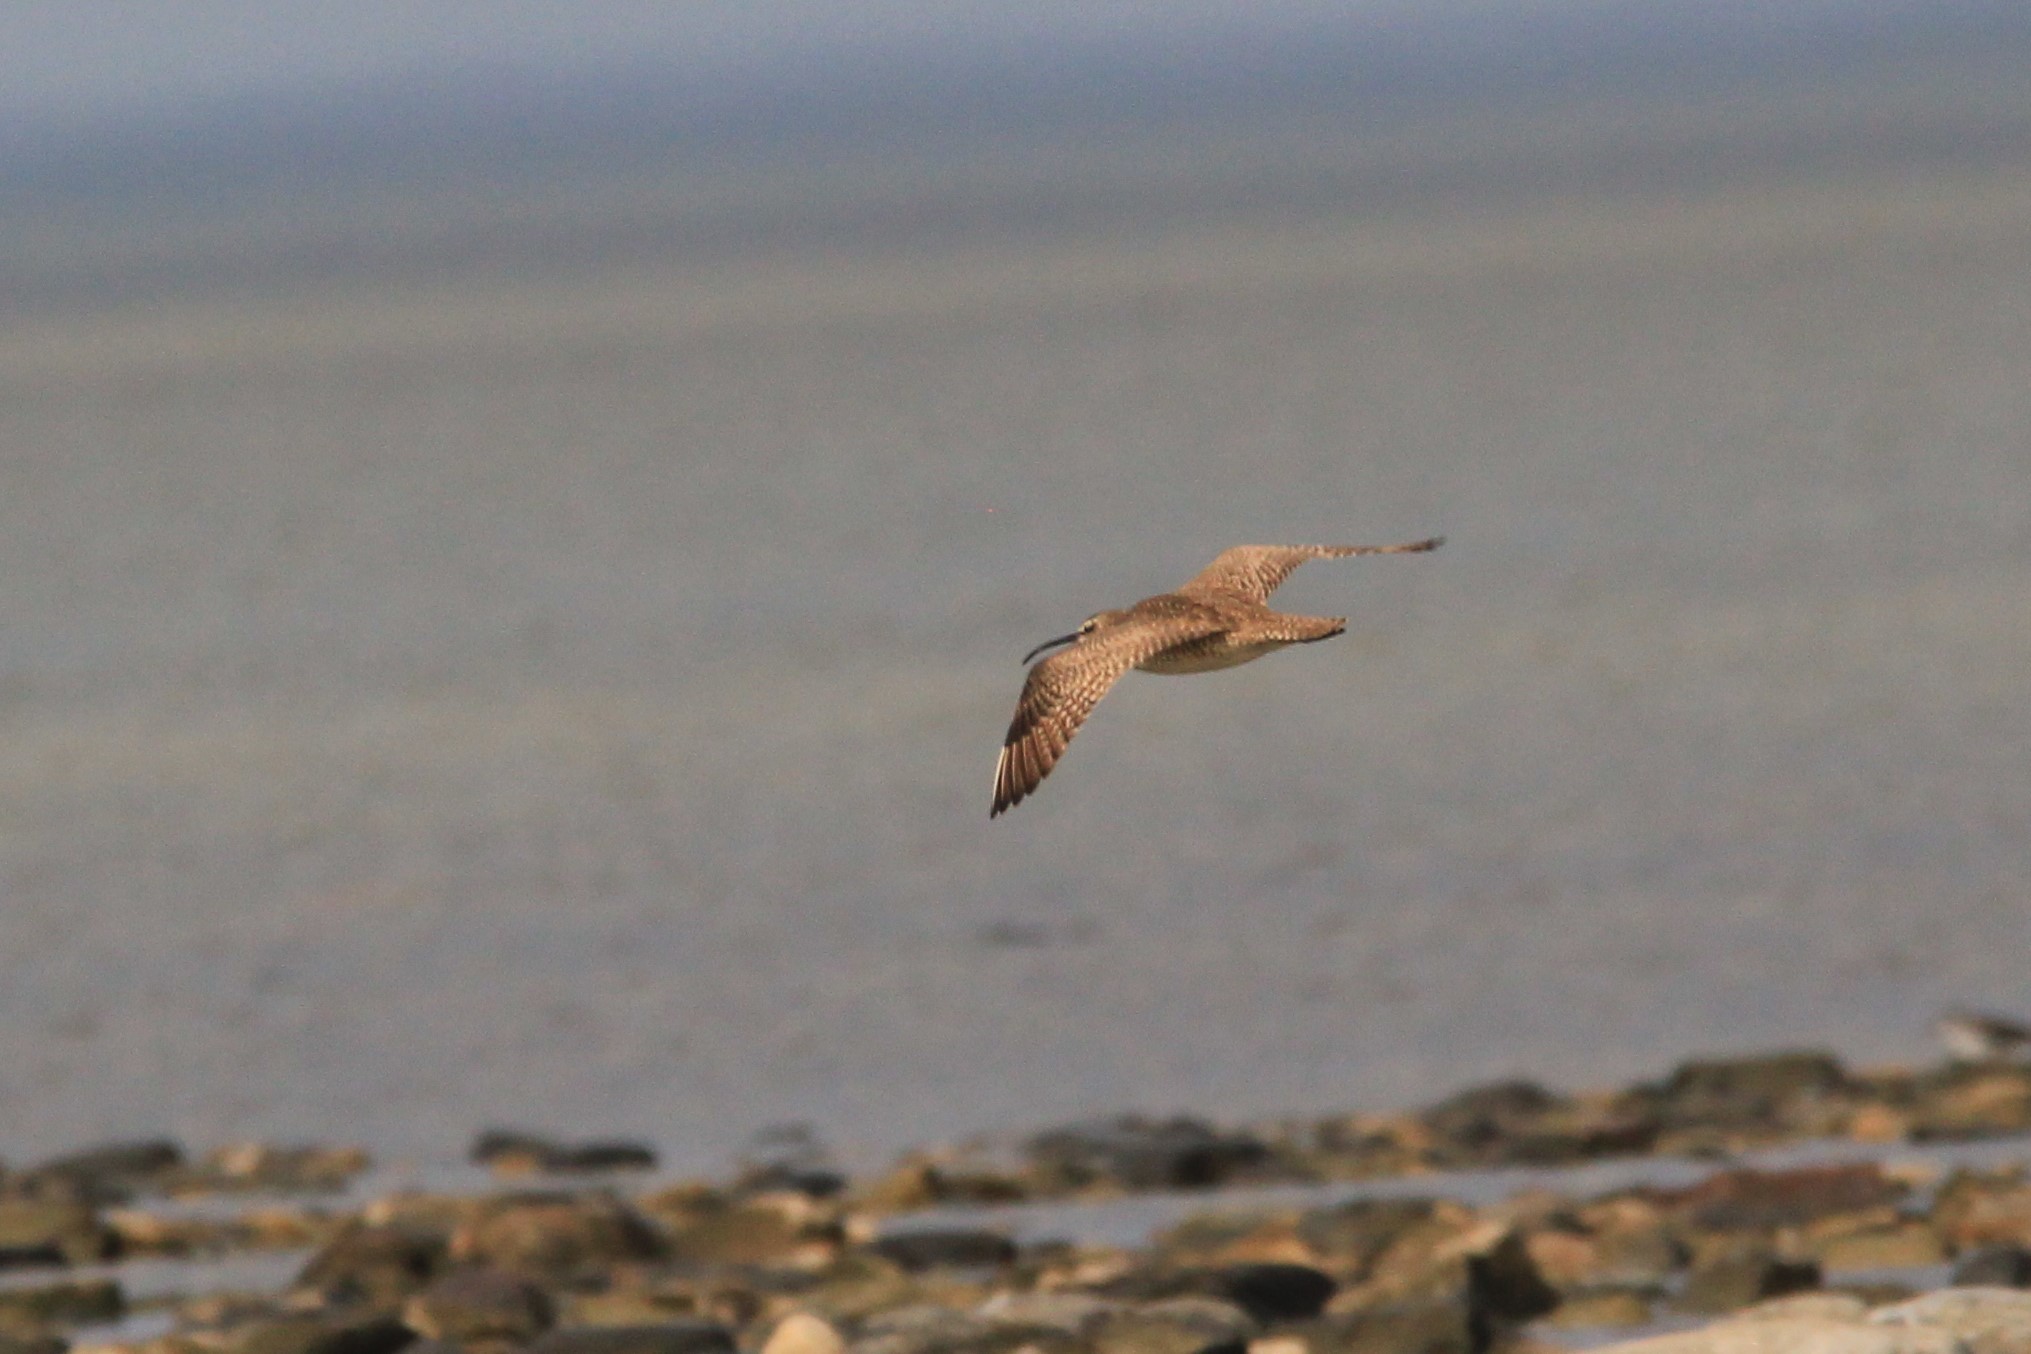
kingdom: Animalia
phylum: Chordata
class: Aves
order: Charadriiformes
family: Scolopacidae
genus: Numenius
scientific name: Numenius phaeopus
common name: Whimbrel
